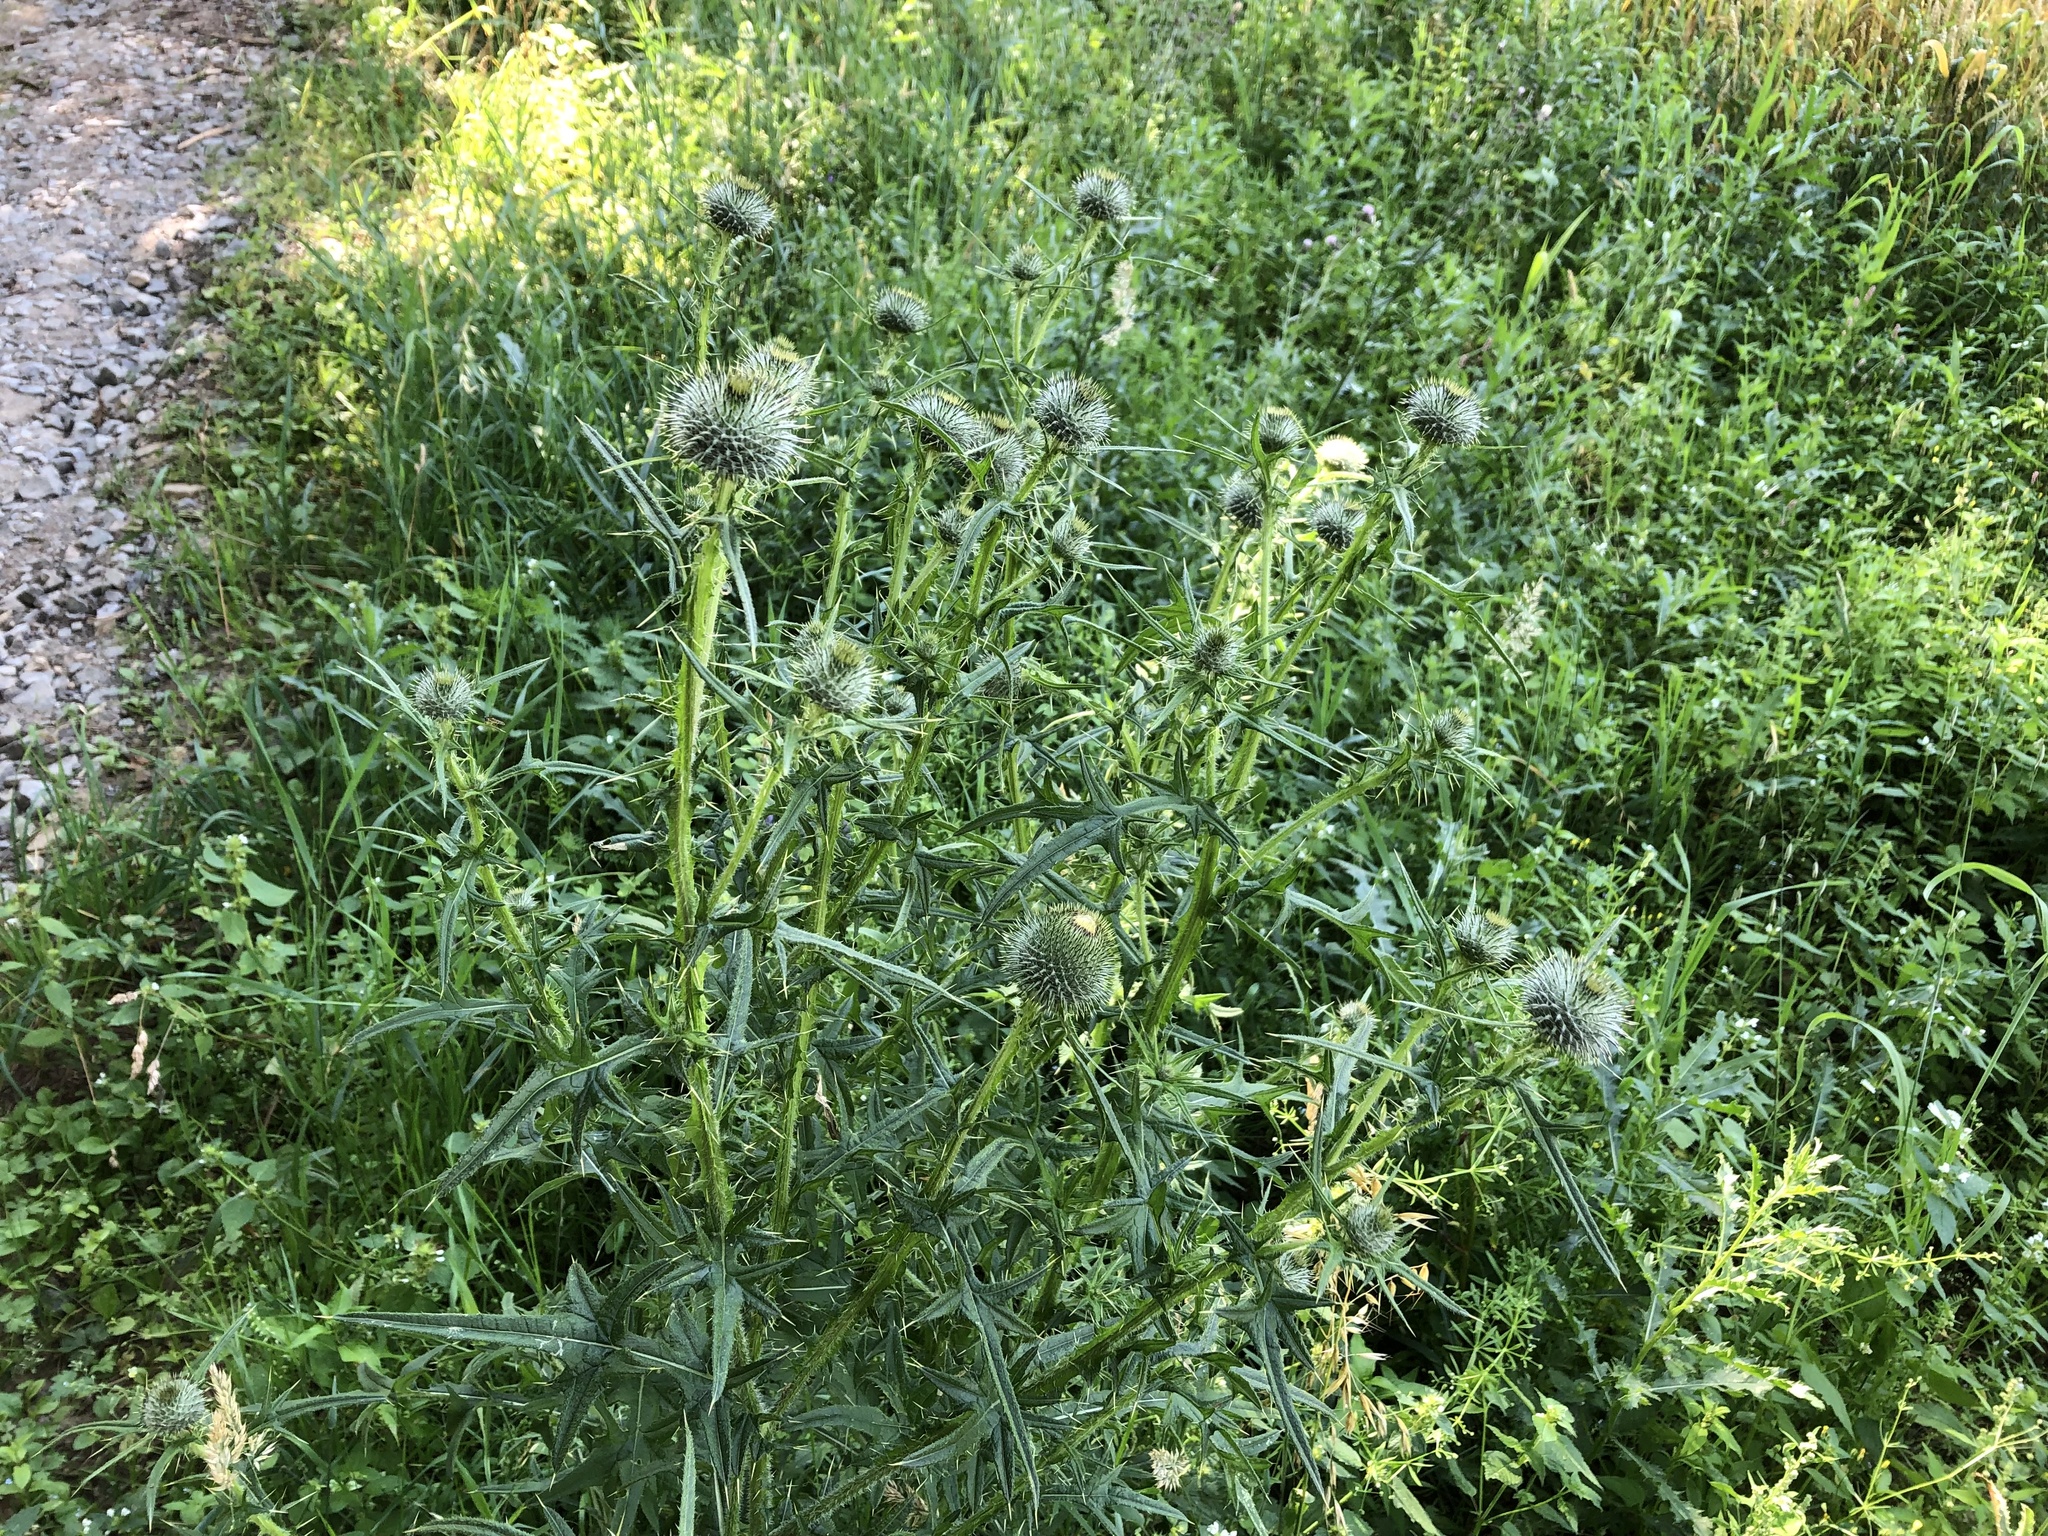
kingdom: Plantae
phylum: Tracheophyta
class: Magnoliopsida
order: Asterales
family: Asteraceae
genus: Cirsium
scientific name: Cirsium vulgare
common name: Bull thistle
